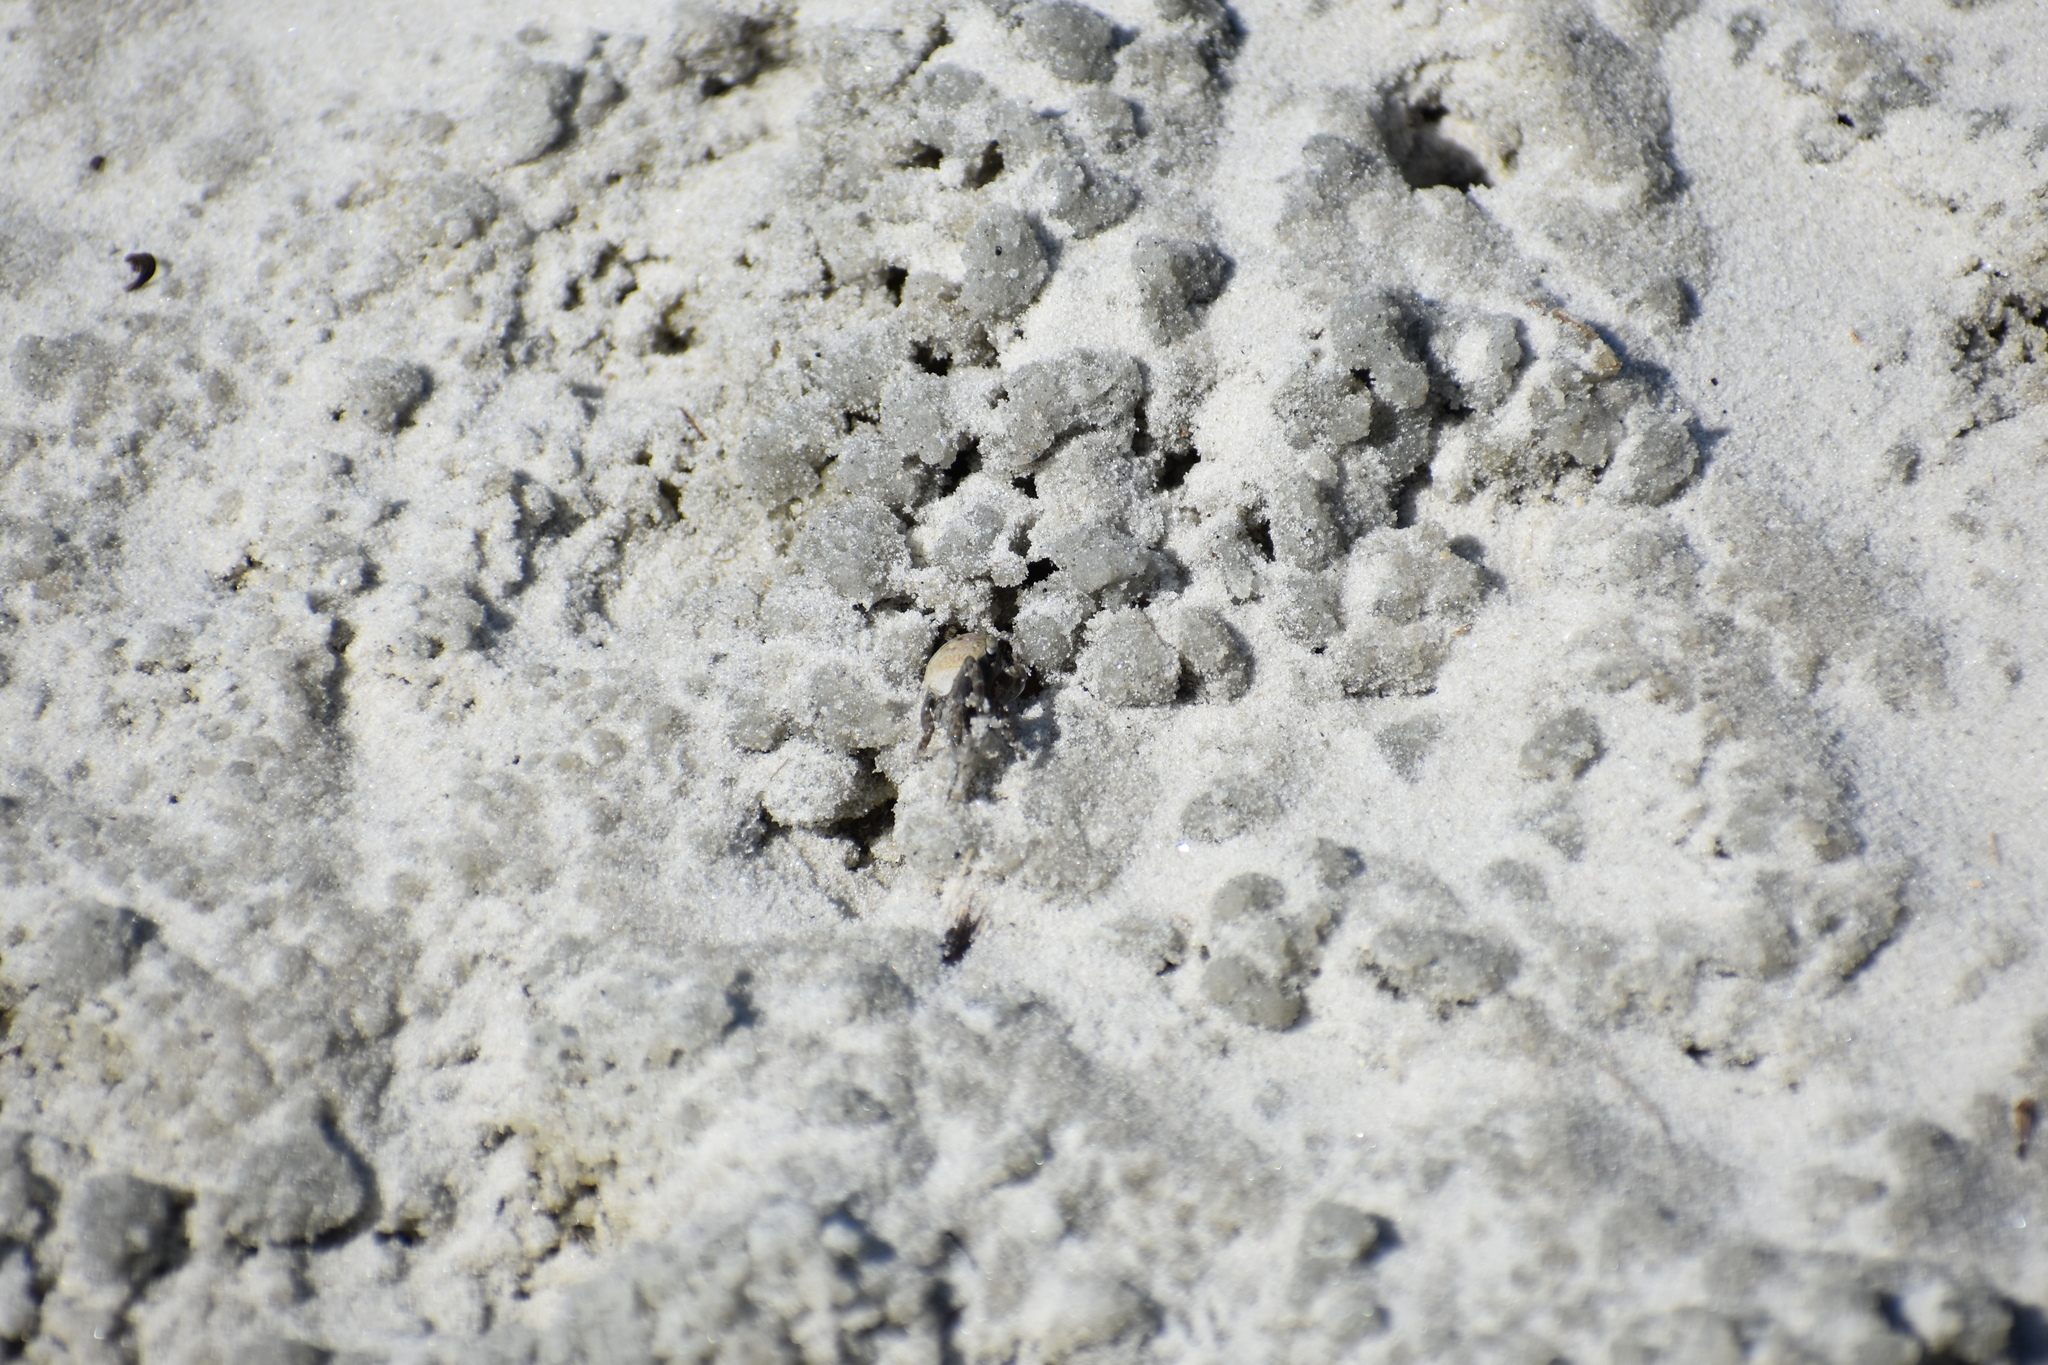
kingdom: Animalia
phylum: Arthropoda
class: Malacostraca
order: Decapoda
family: Ocypodidae
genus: Leptuca
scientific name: Leptuca pugilator
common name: Atlantic sand fiddler crab
